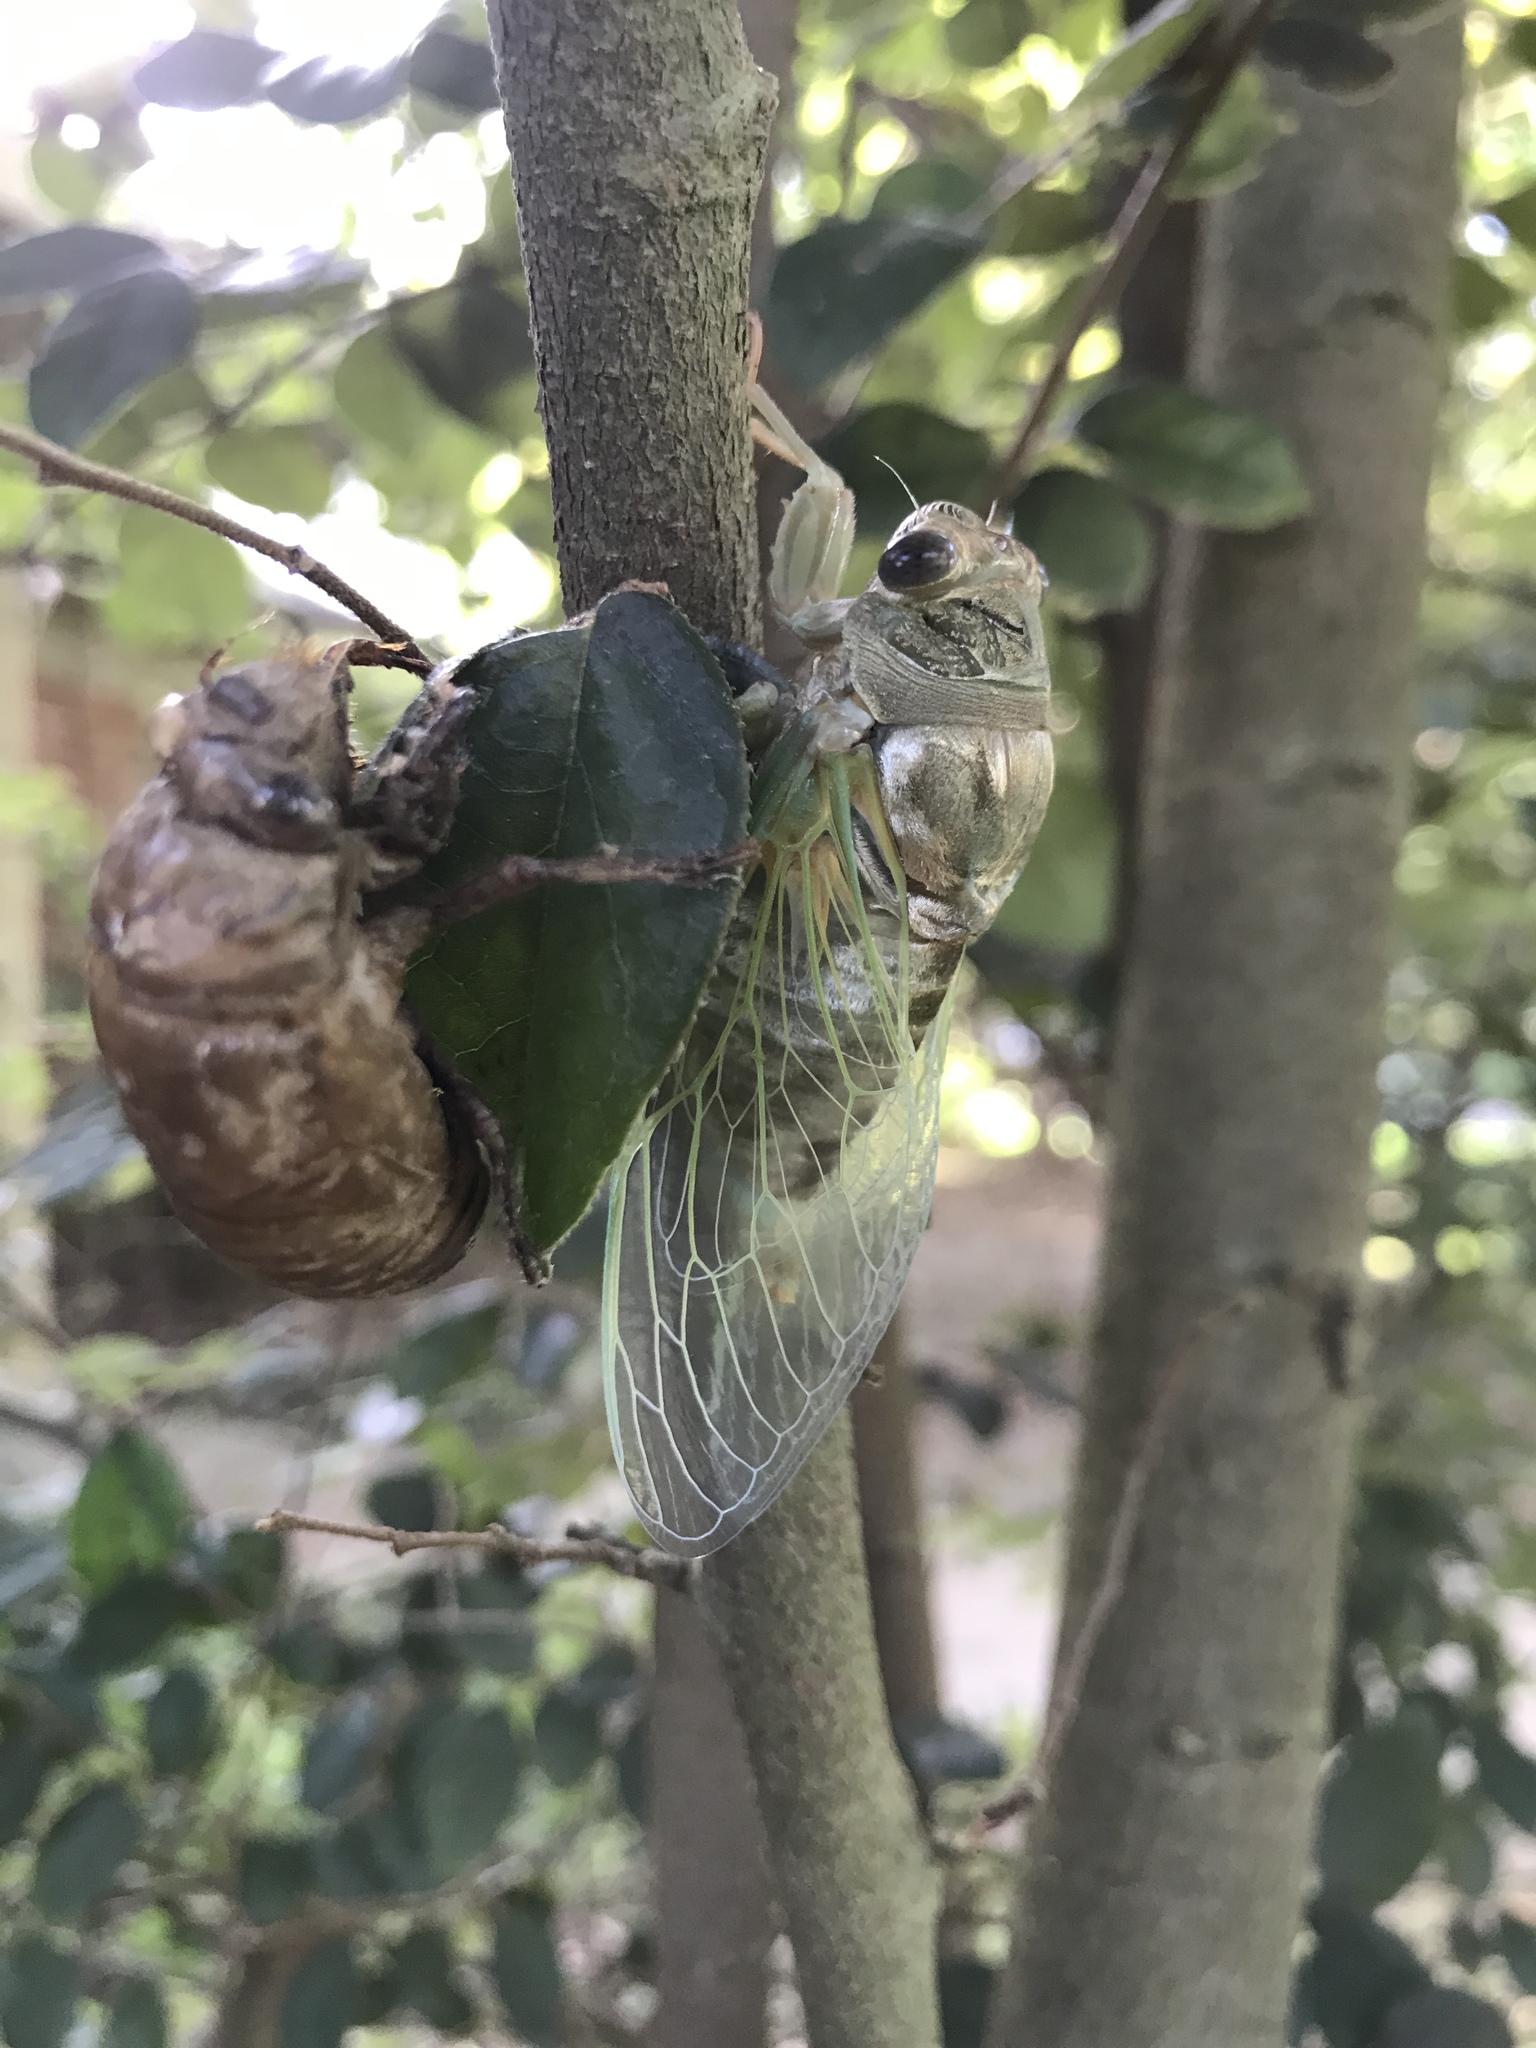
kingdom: Animalia
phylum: Arthropoda
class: Insecta
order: Hemiptera
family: Cicadidae
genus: Megatibicen
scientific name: Megatibicen resh
